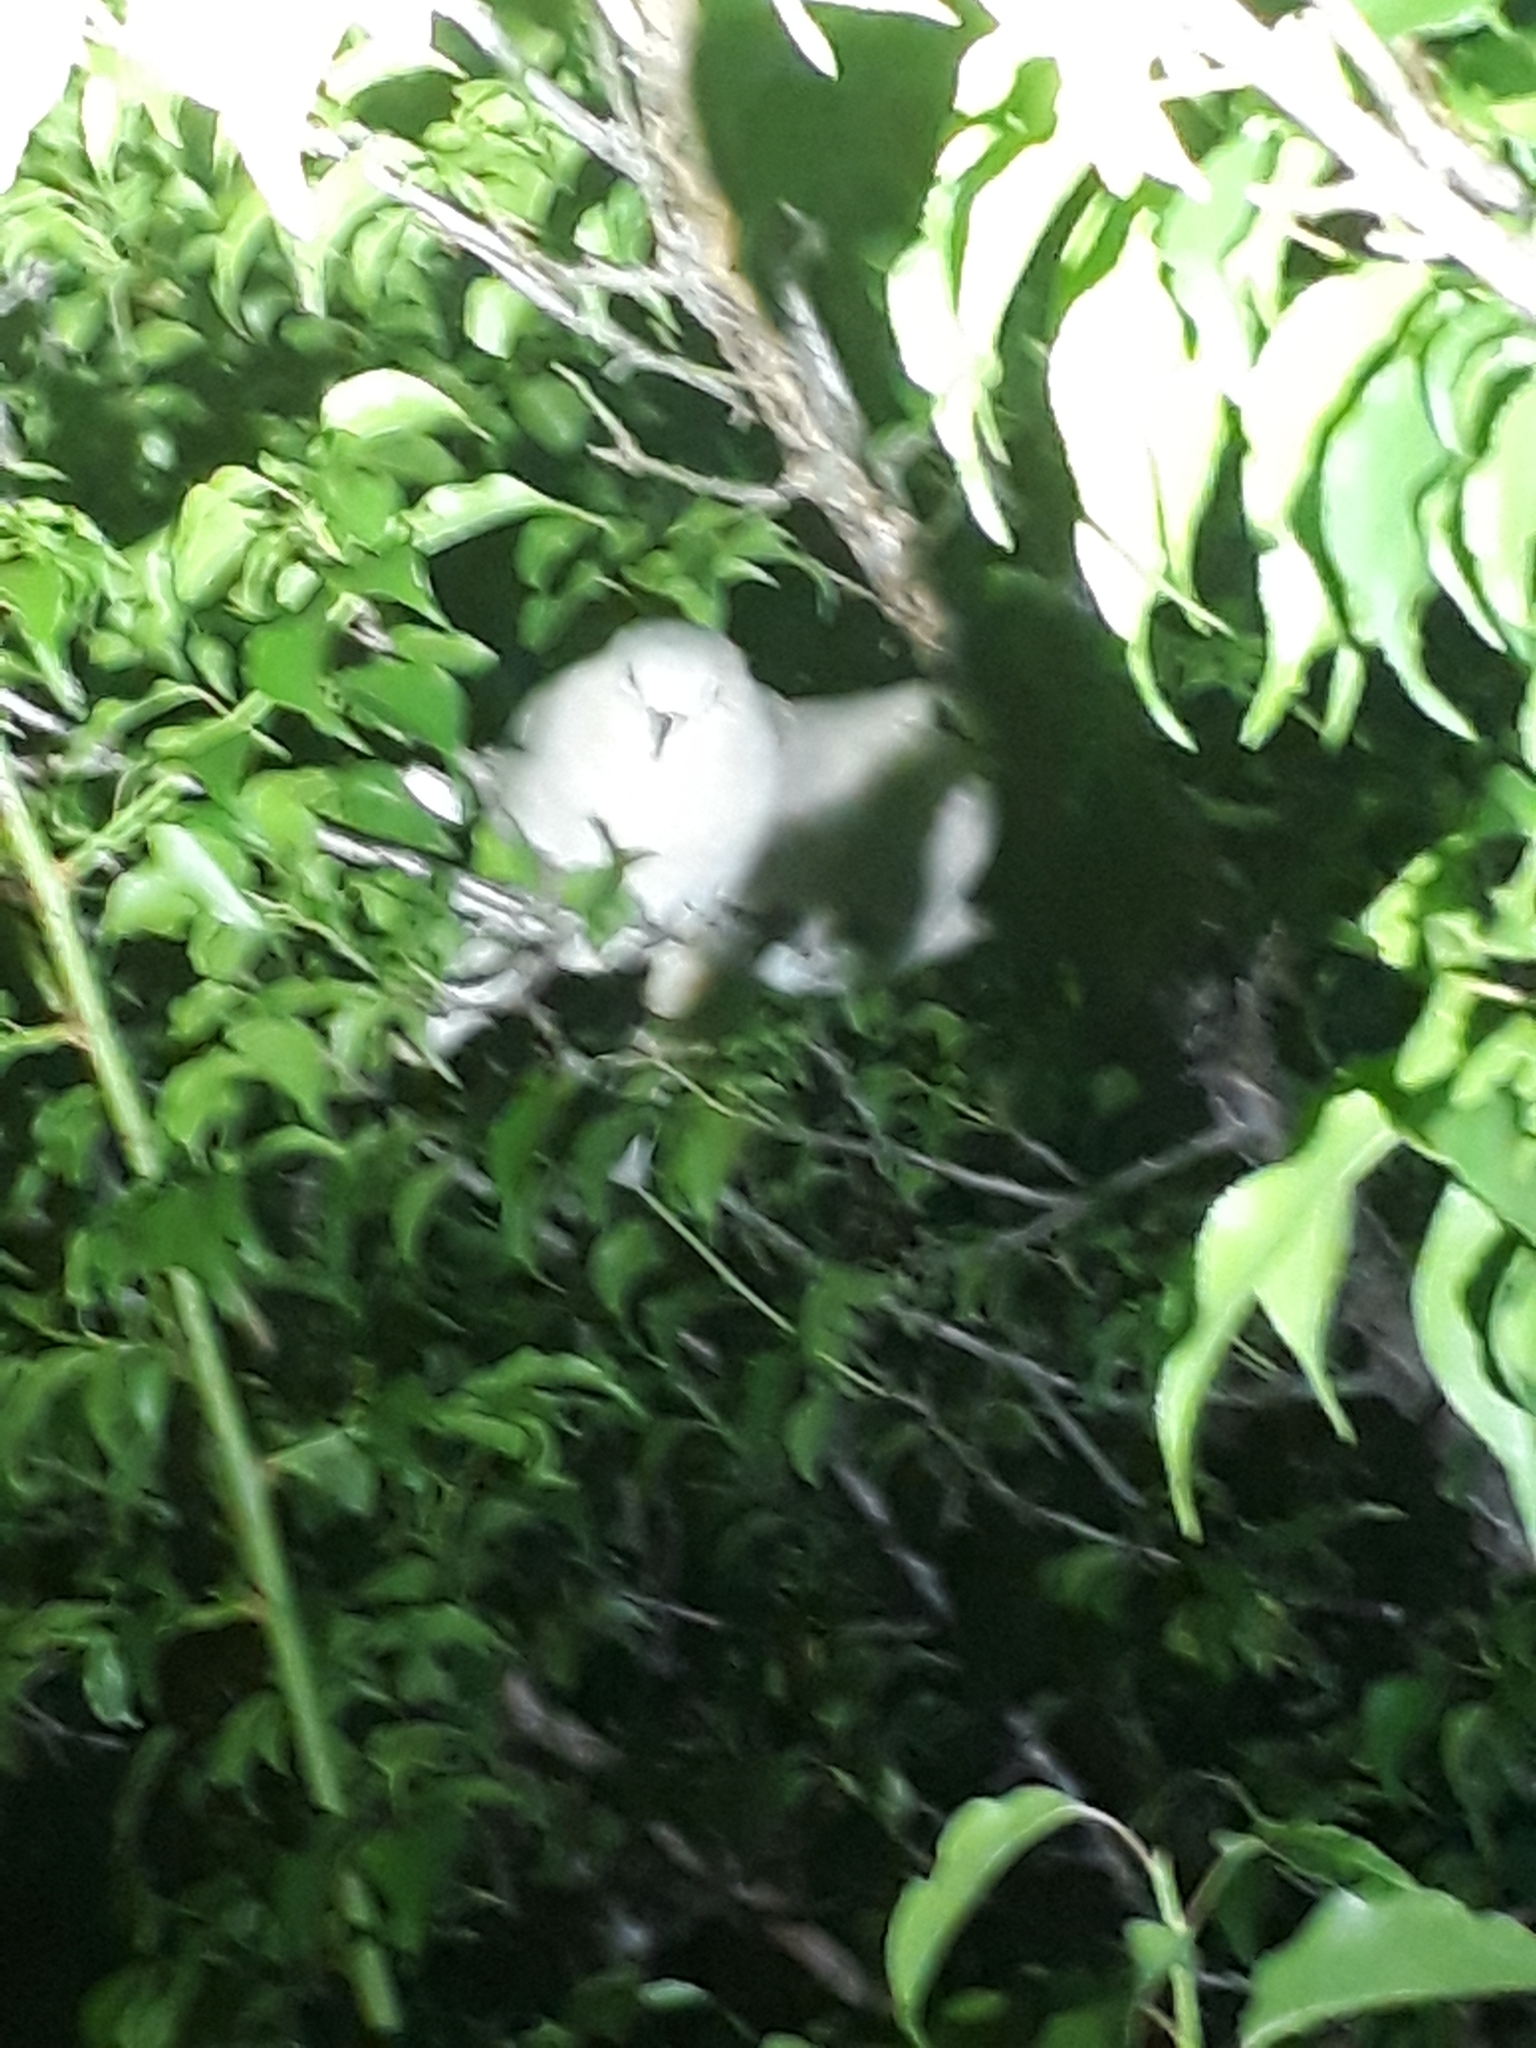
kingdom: Animalia
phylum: Chordata
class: Aves
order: Columbiformes
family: Columbidae
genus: Columbina
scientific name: Columbina picui
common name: Picui ground dove
